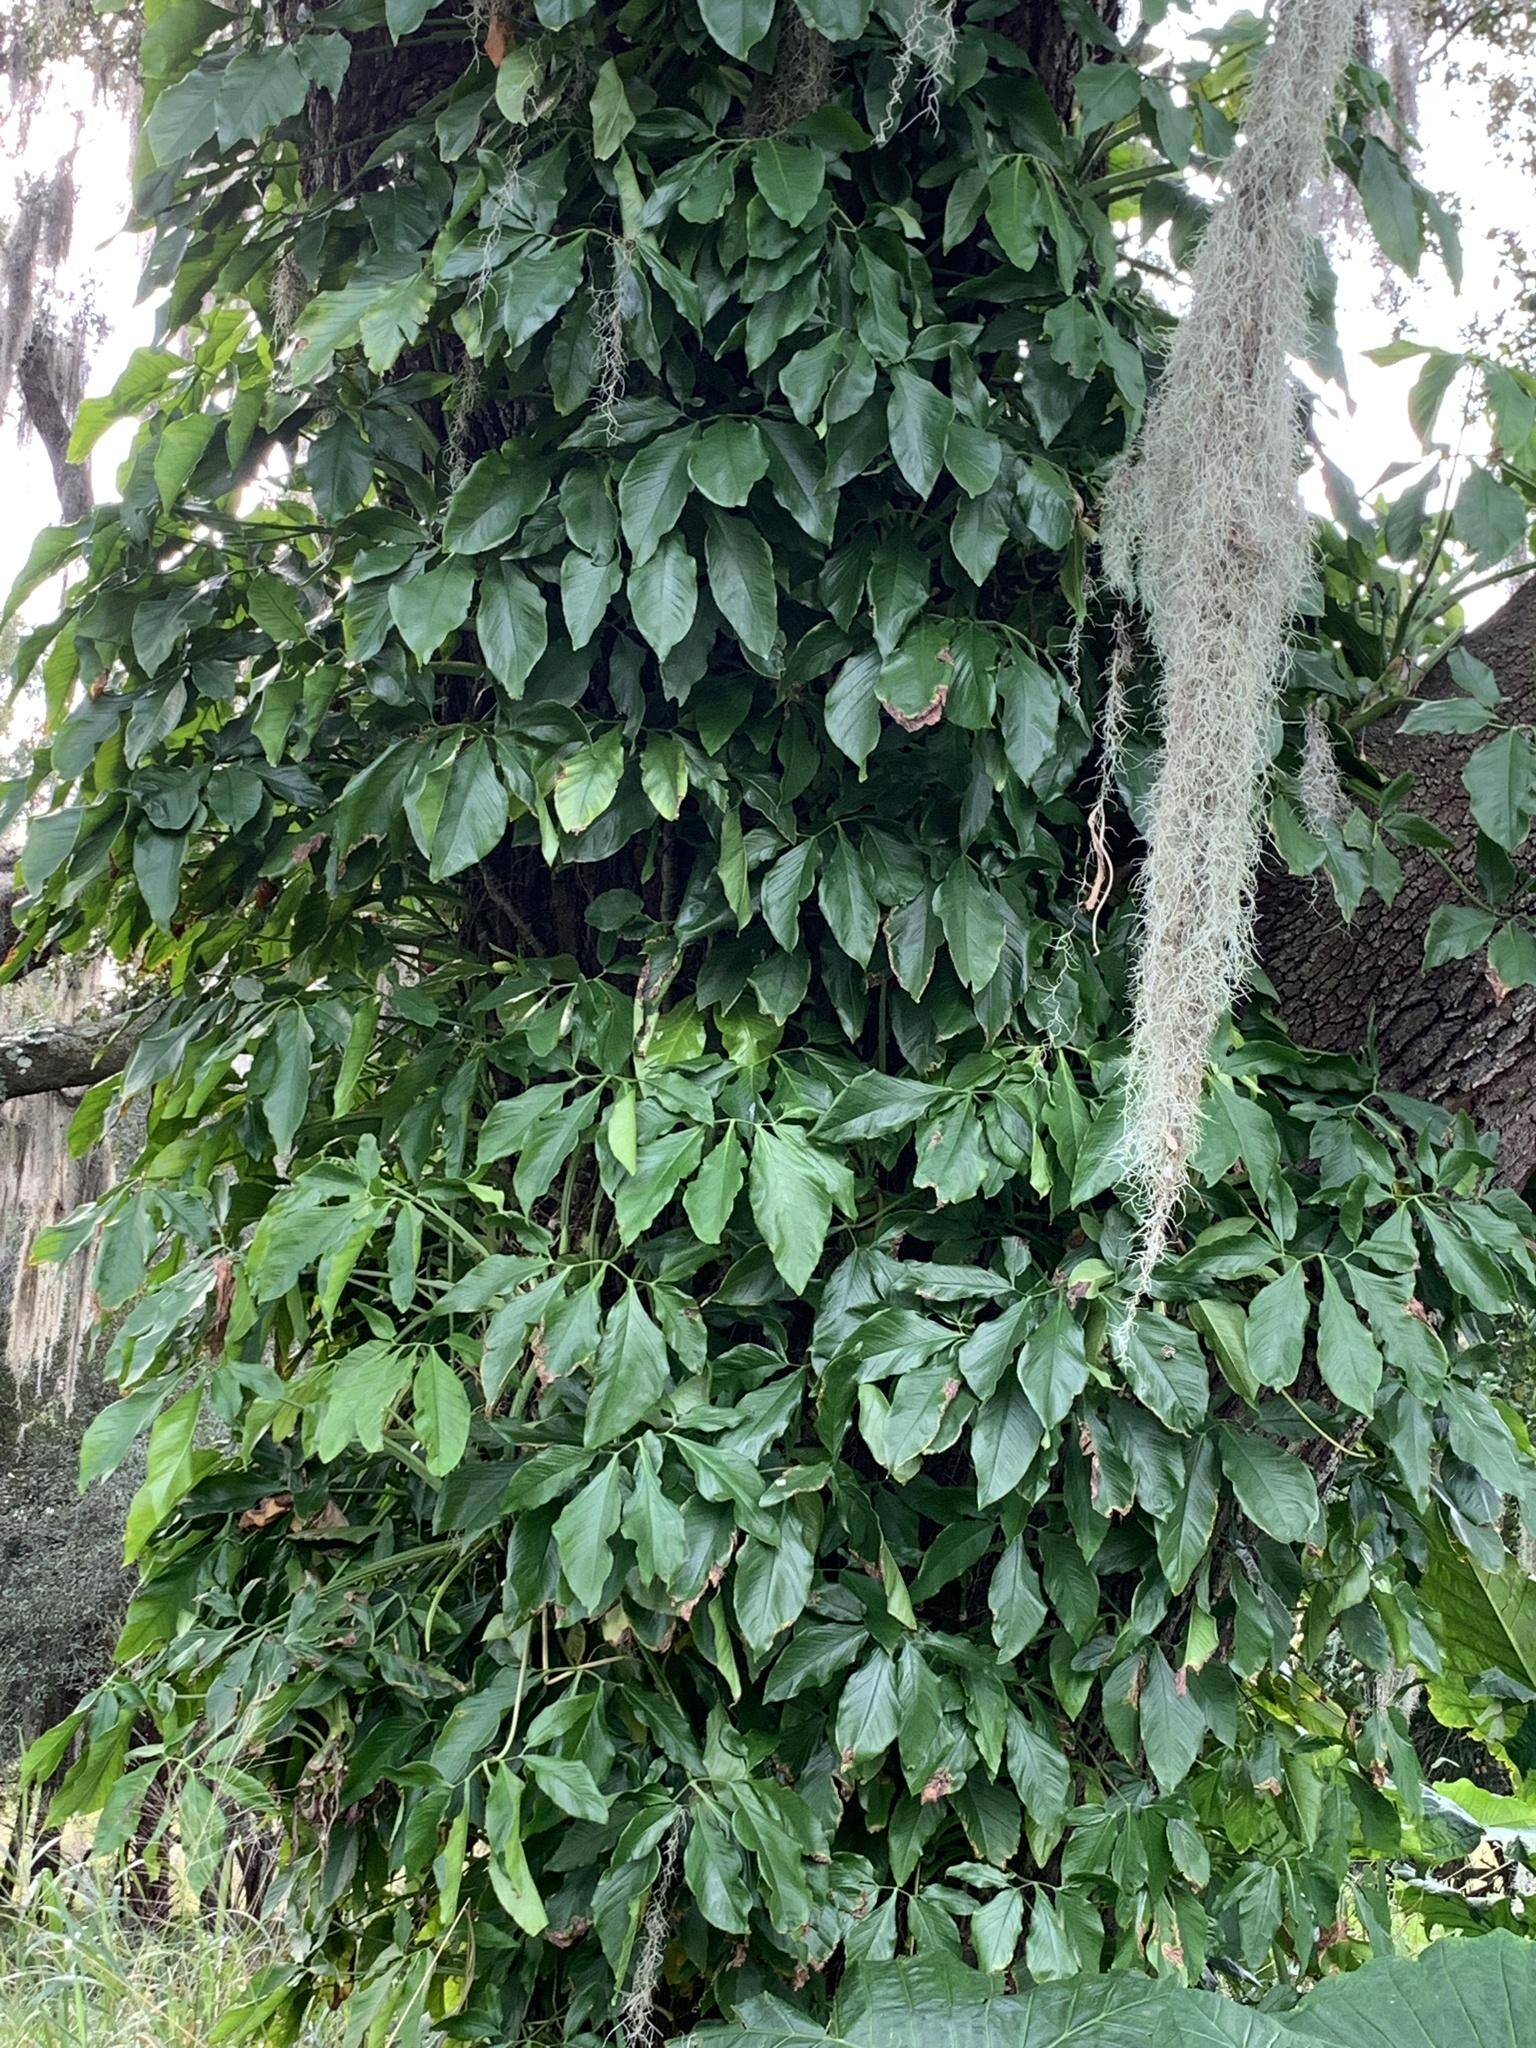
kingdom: Plantae
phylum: Tracheophyta
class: Liliopsida
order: Alismatales
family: Araceae
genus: Syngonium
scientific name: Syngonium podophyllum
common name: American evergreen
